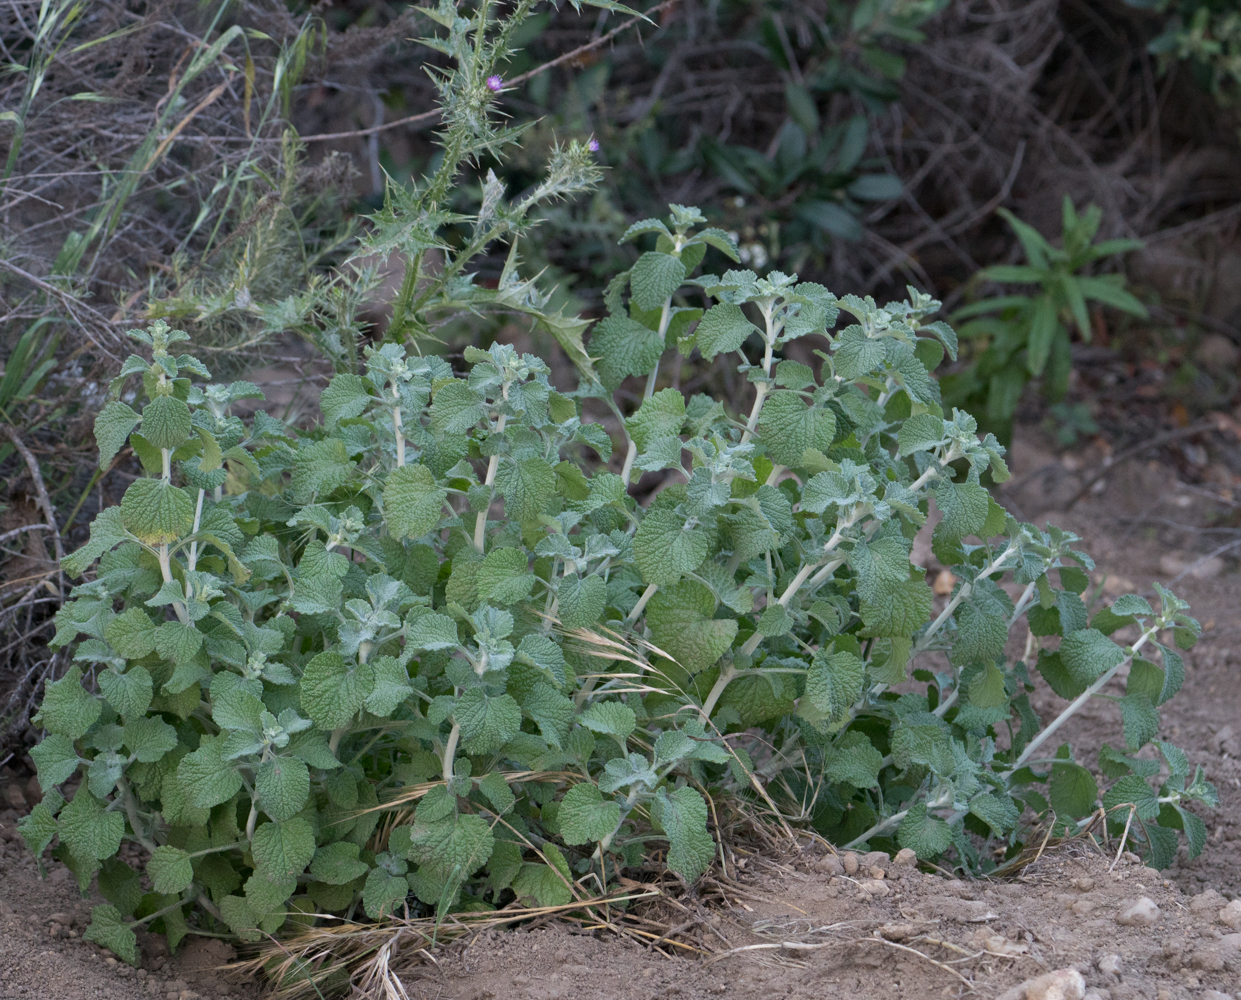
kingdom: Plantae
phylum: Tracheophyta
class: Magnoliopsida
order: Lamiales
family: Lamiaceae
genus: Marrubium
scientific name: Marrubium vulgare
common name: Horehound
